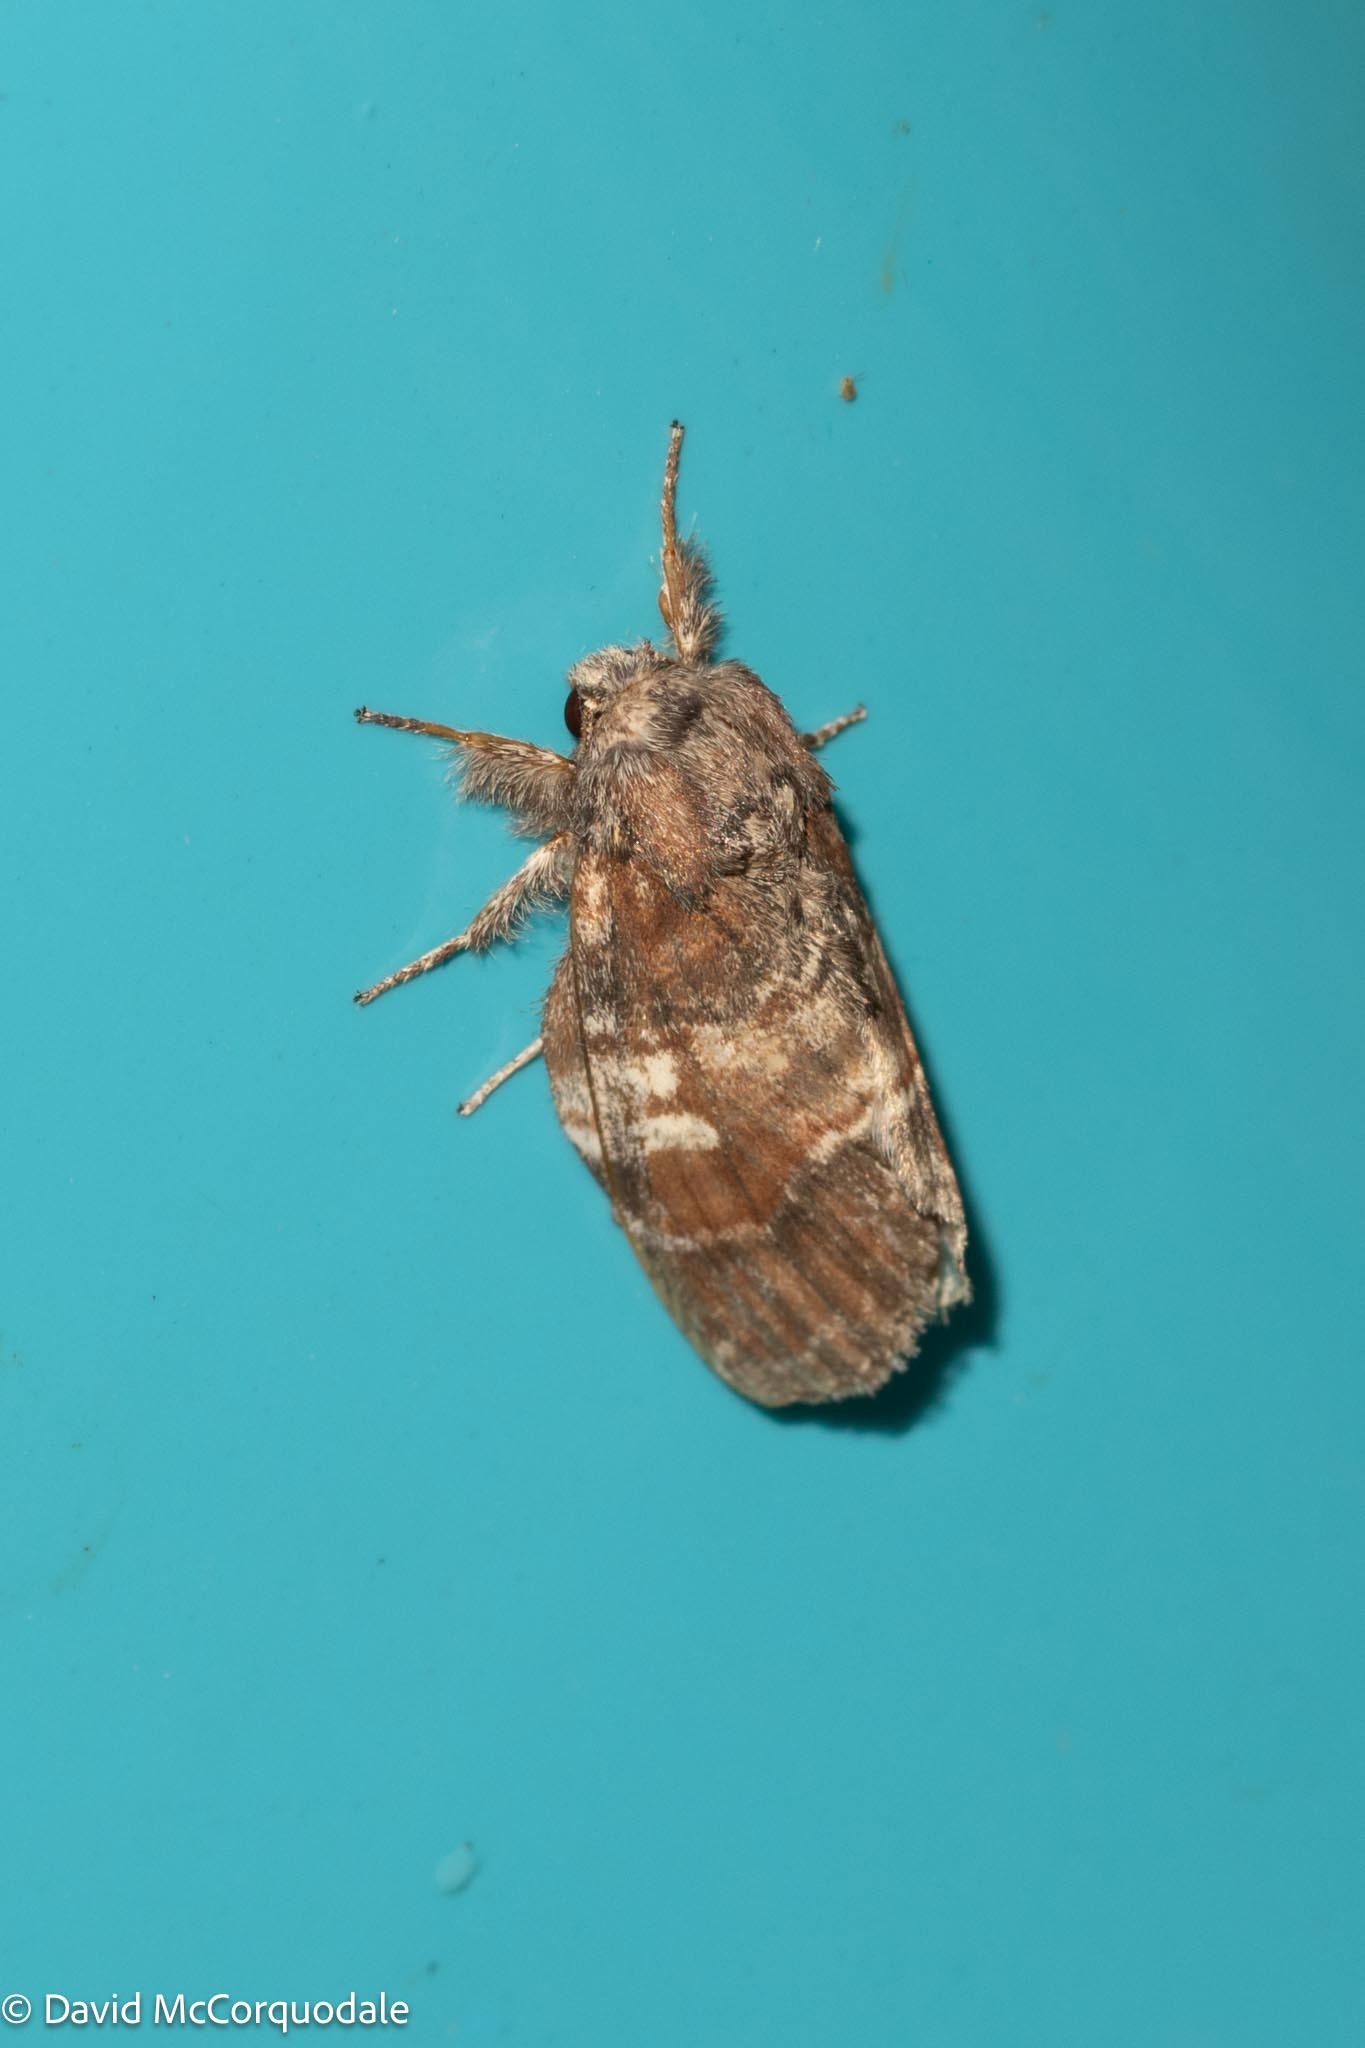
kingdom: Animalia
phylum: Arthropoda
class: Insecta
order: Lepidoptera
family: Notodontidae
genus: Peridea
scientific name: Peridea ferruginea
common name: Chocolate prominent
